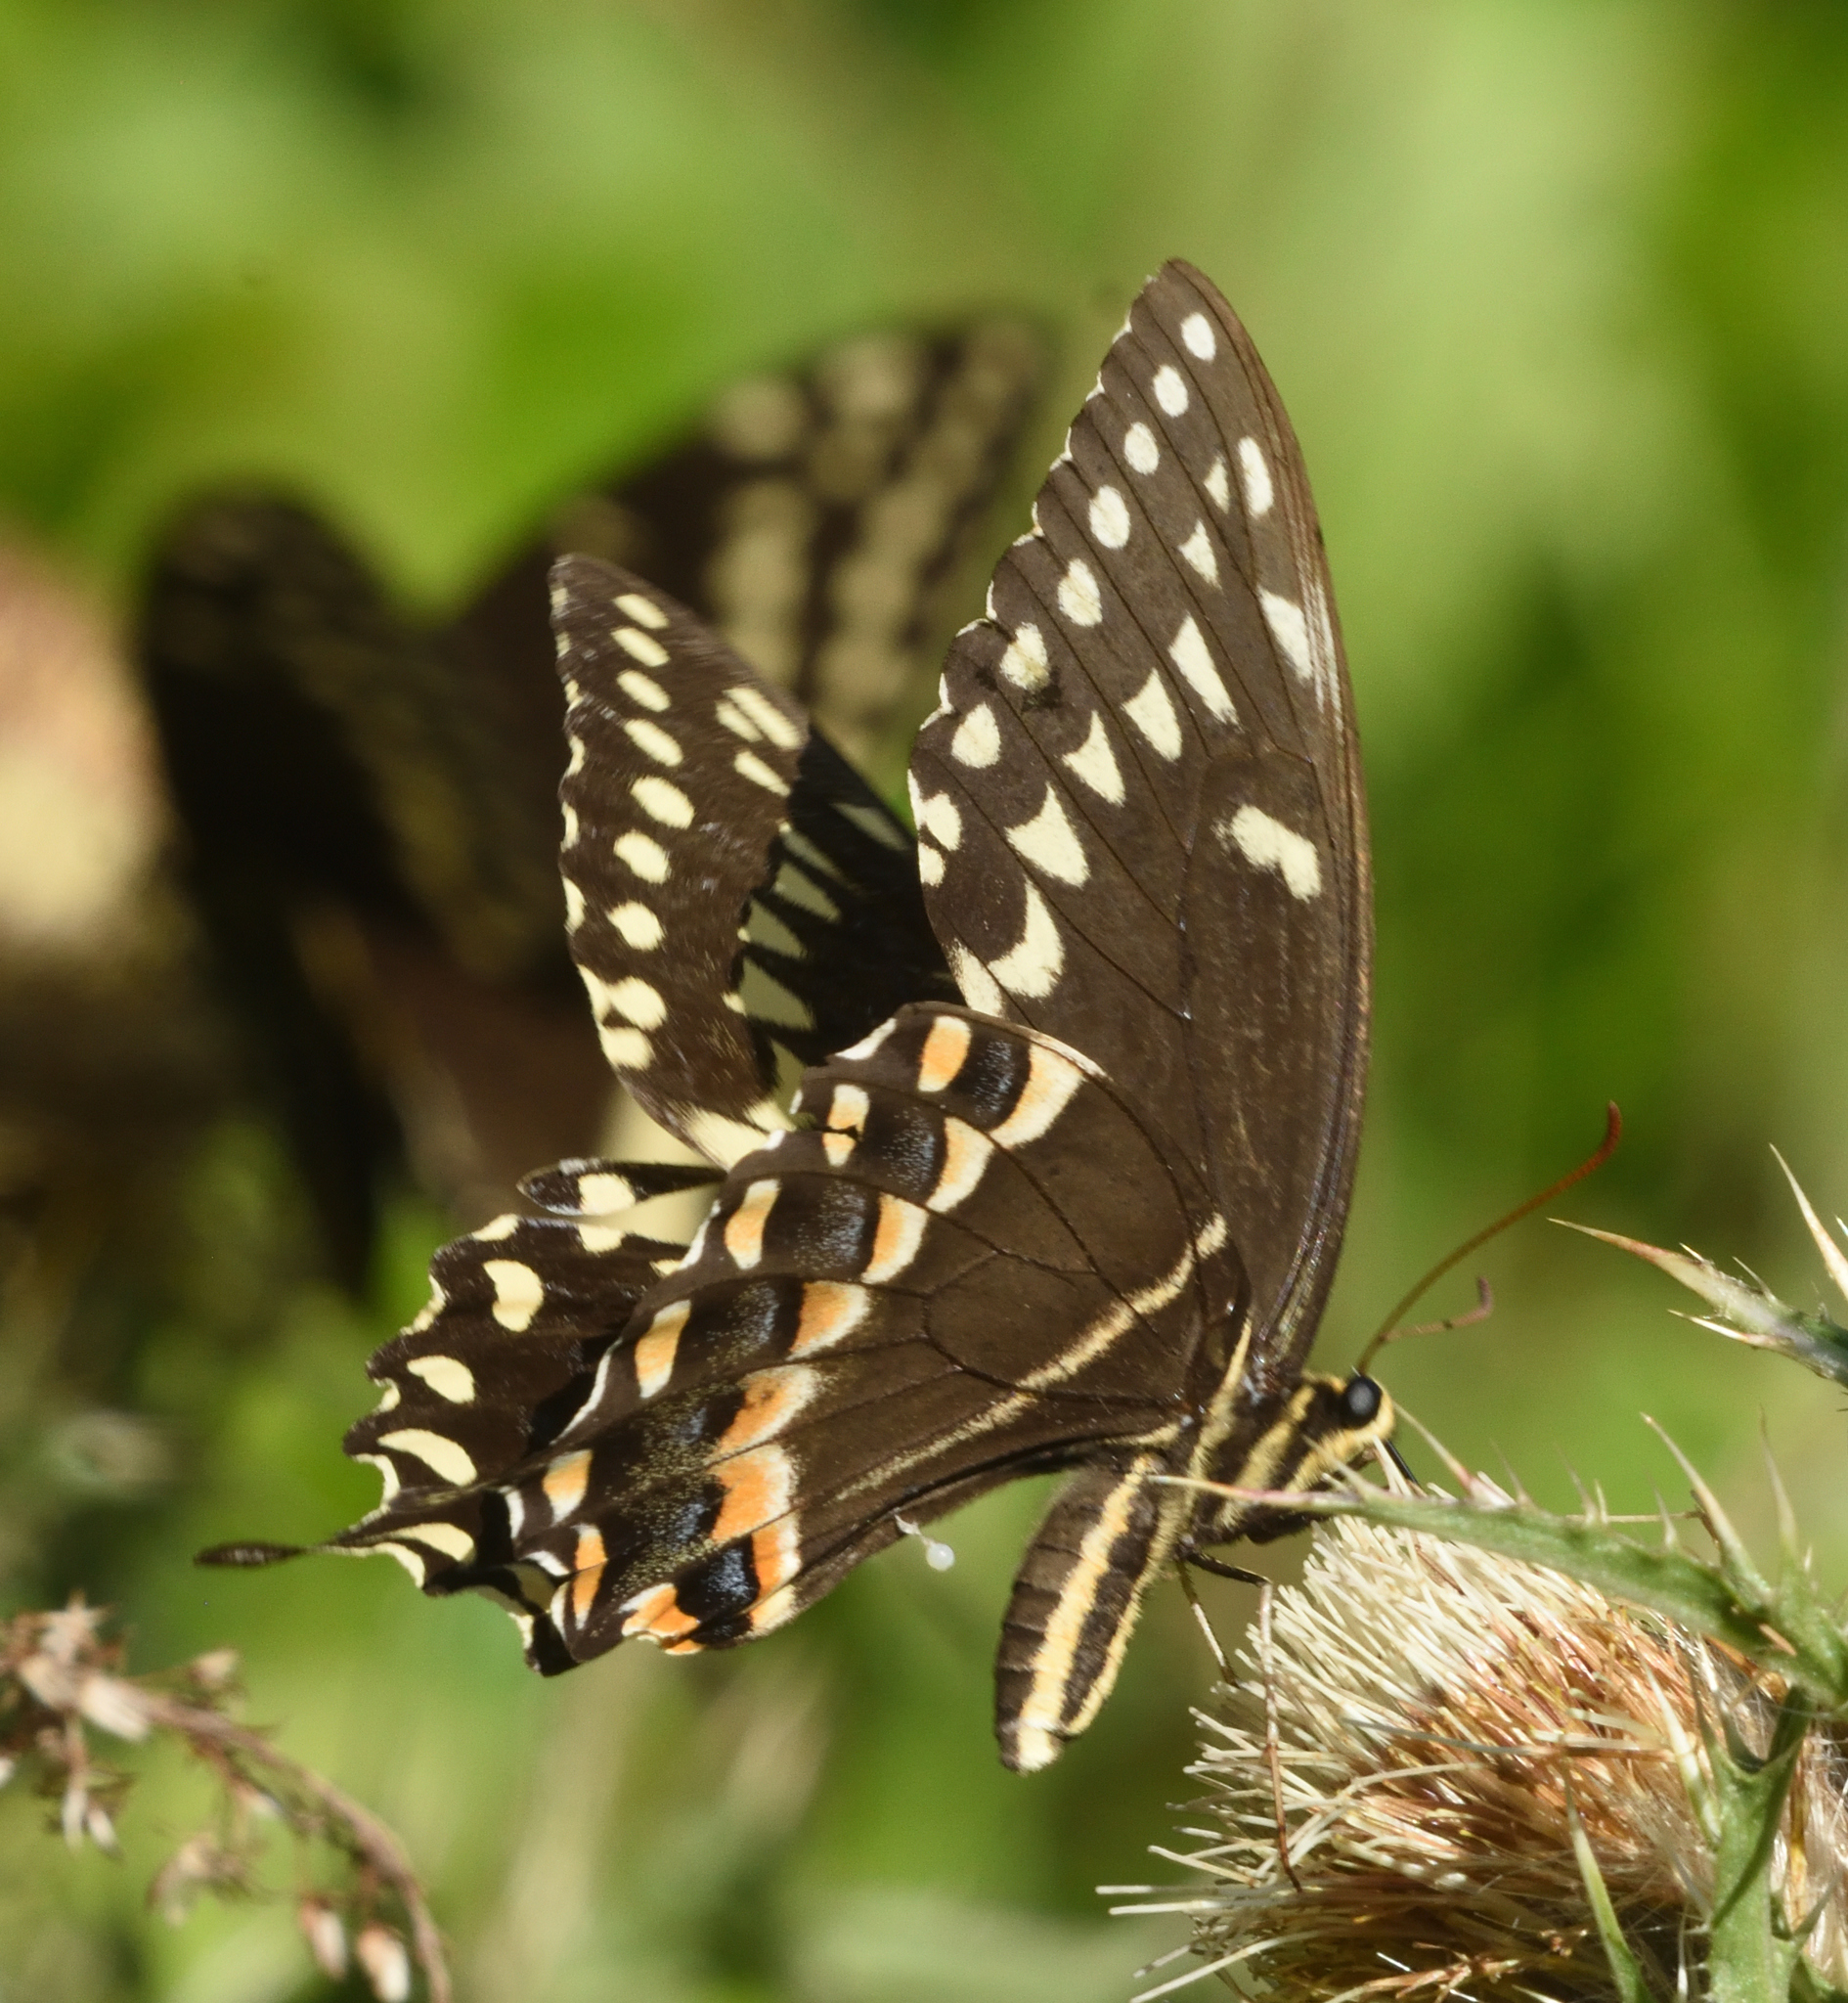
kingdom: Animalia
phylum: Arthropoda
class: Insecta
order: Lepidoptera
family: Papilionidae
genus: Papilio
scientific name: Papilio palamedes
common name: Palamedes swallowtail
